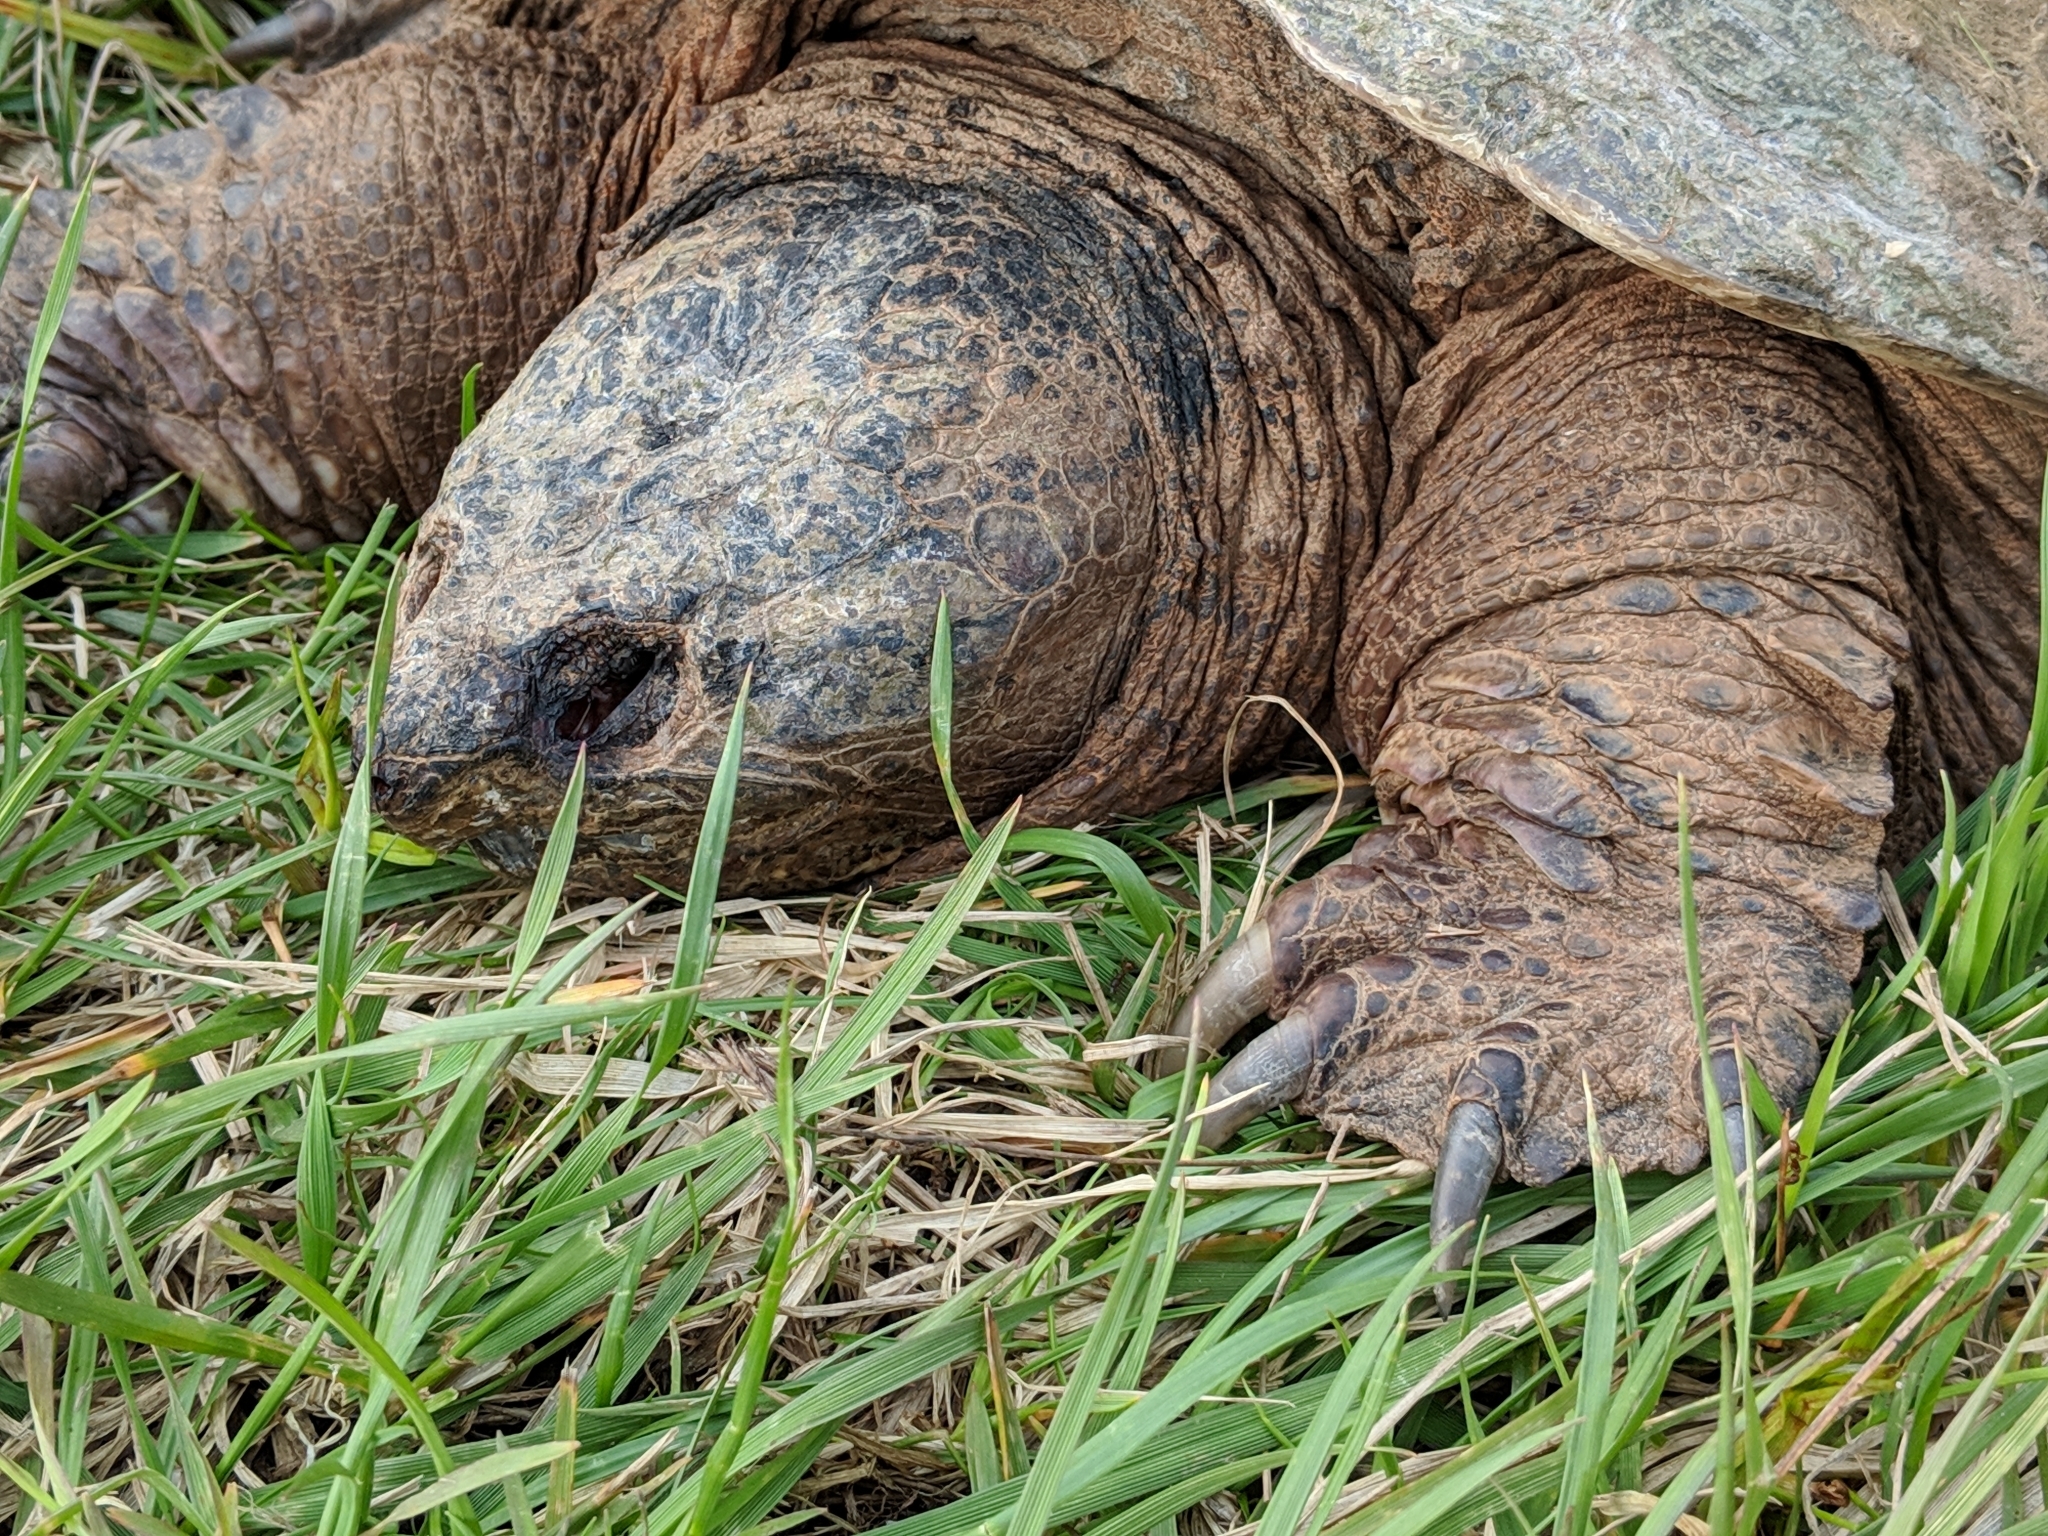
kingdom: Animalia
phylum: Chordata
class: Testudines
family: Chelydridae
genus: Chelydra
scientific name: Chelydra serpentina
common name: Common snapping turtle
